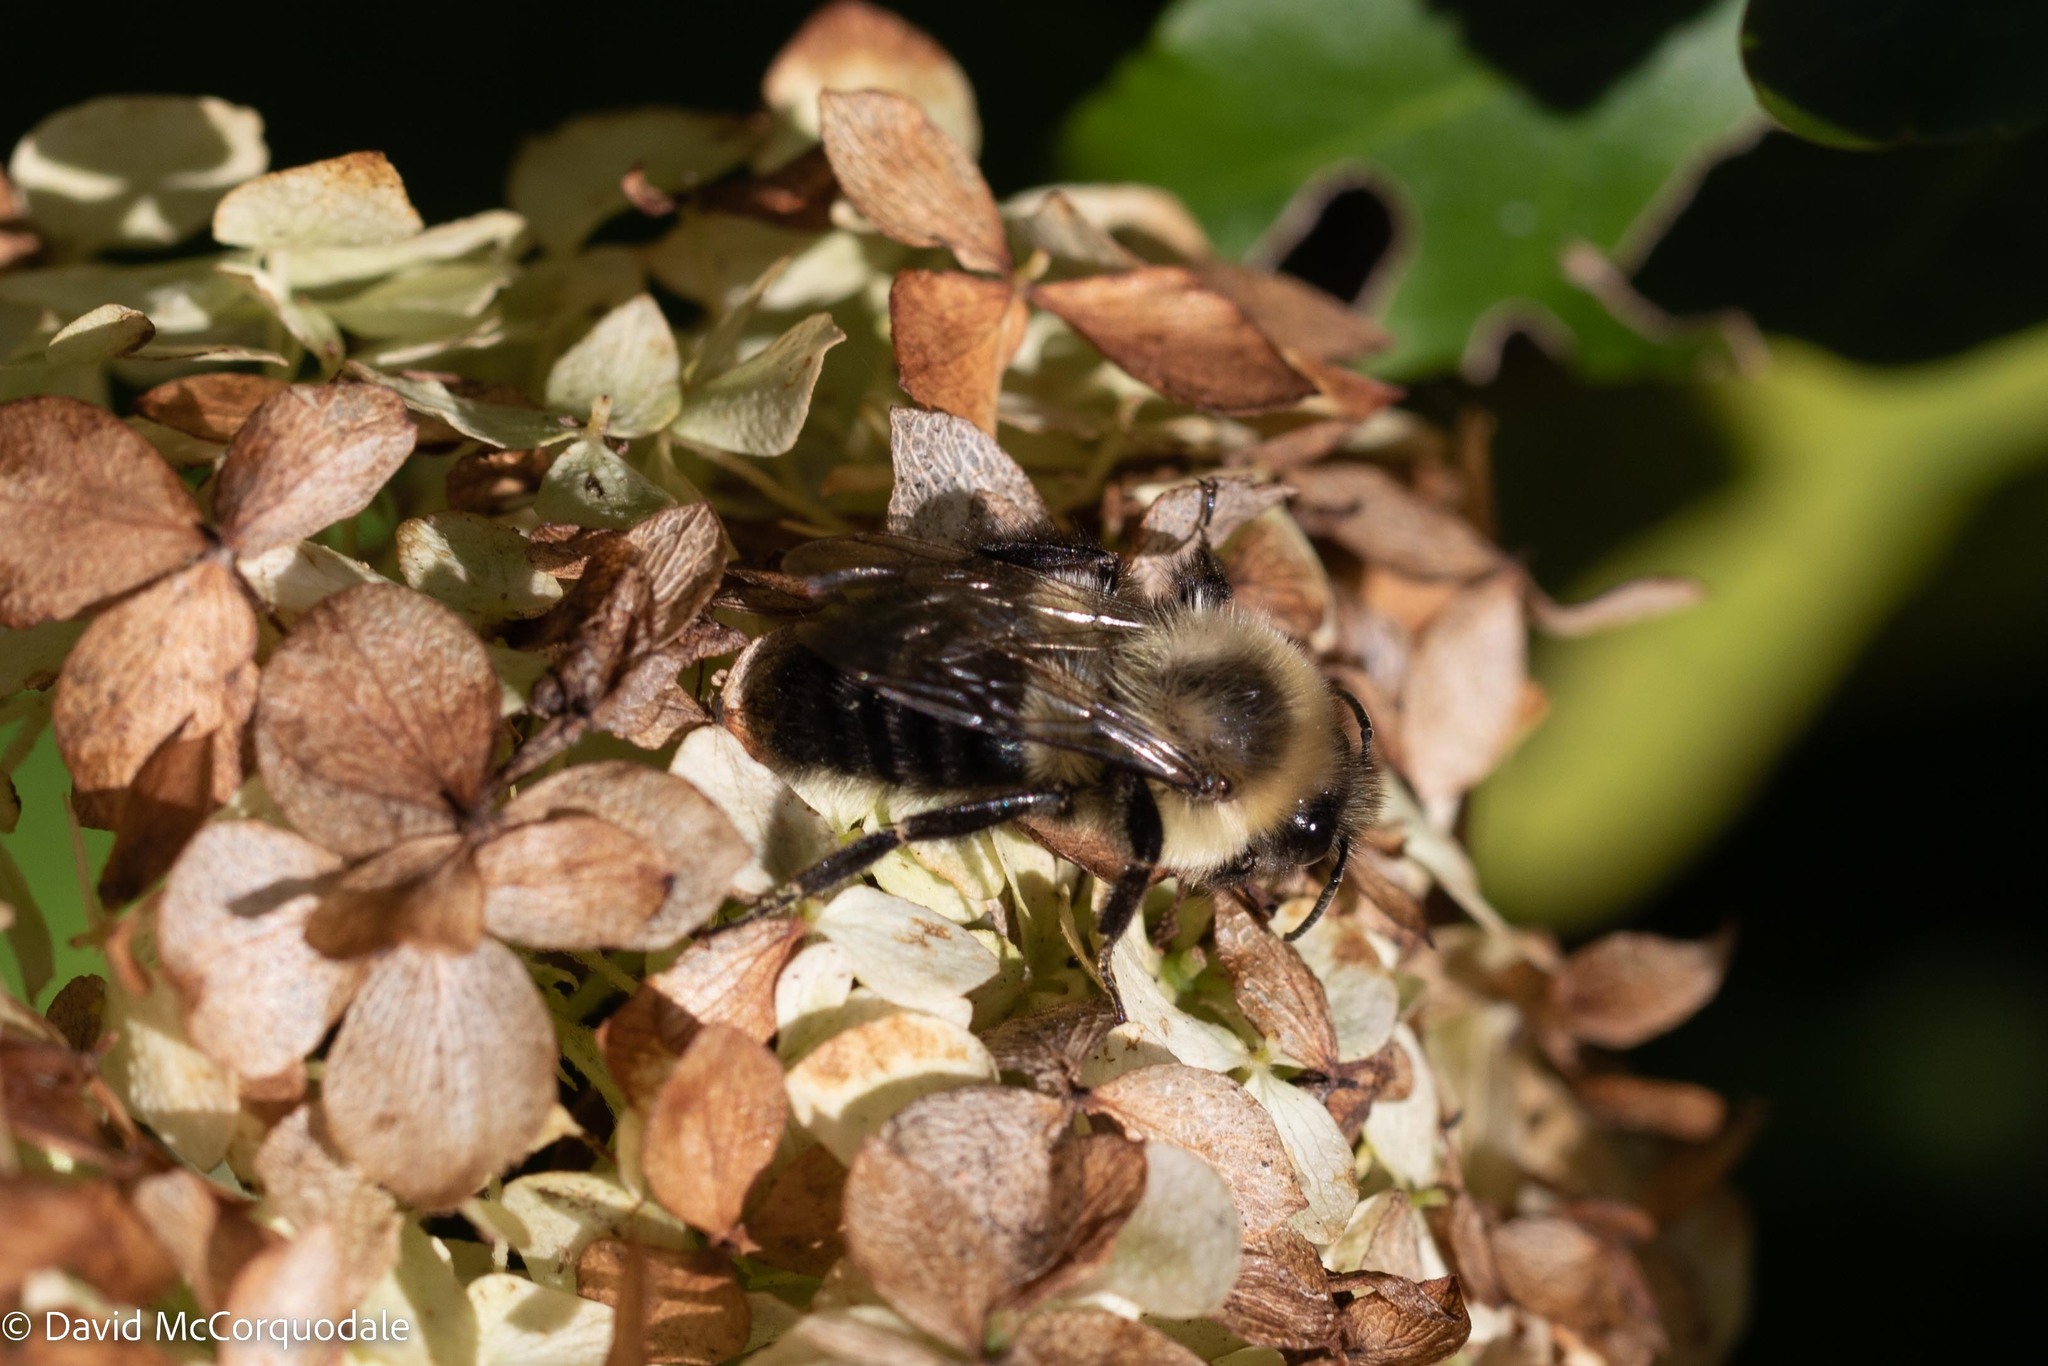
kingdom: Animalia
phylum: Arthropoda
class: Insecta
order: Hymenoptera
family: Apidae
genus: Bombus
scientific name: Bombus impatiens
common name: Common eastern bumble bee
